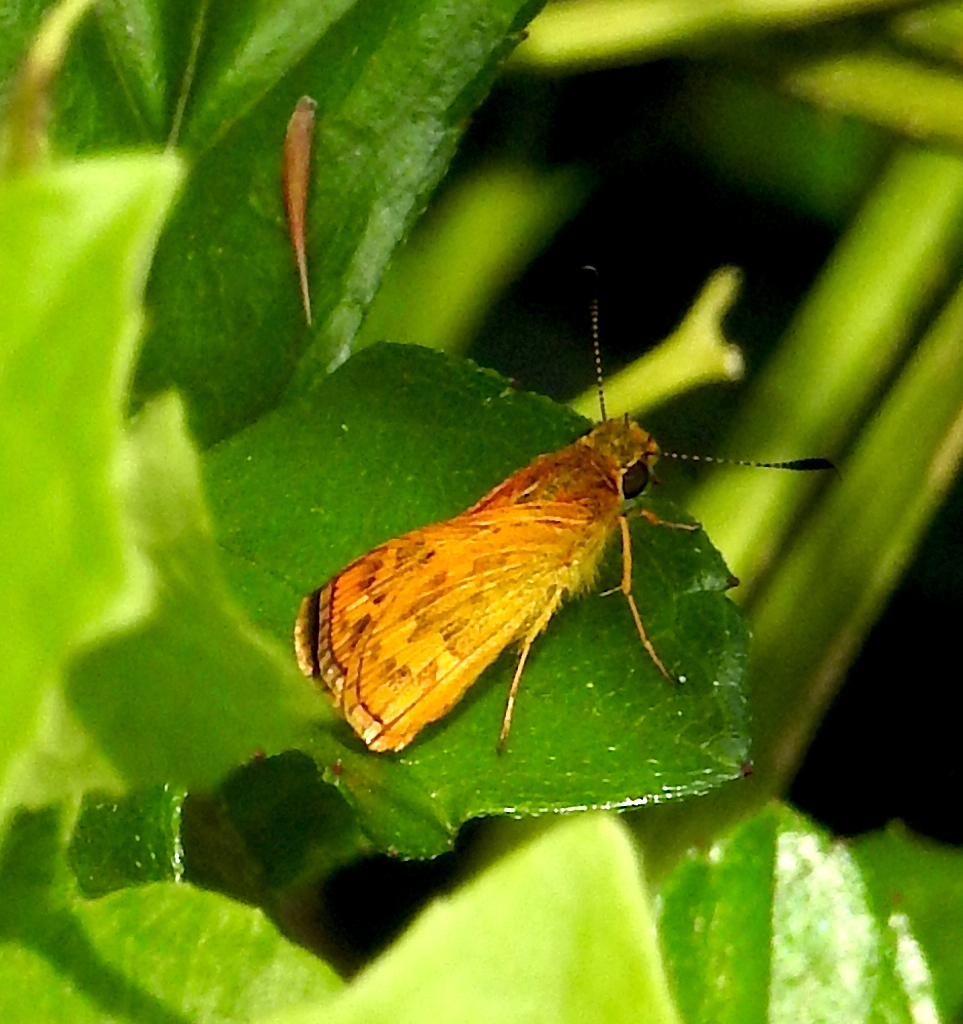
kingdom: Animalia
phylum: Arthropoda
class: Insecta
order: Lepidoptera
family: Hesperiidae
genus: Potanthus
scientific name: Potanthus confucius
